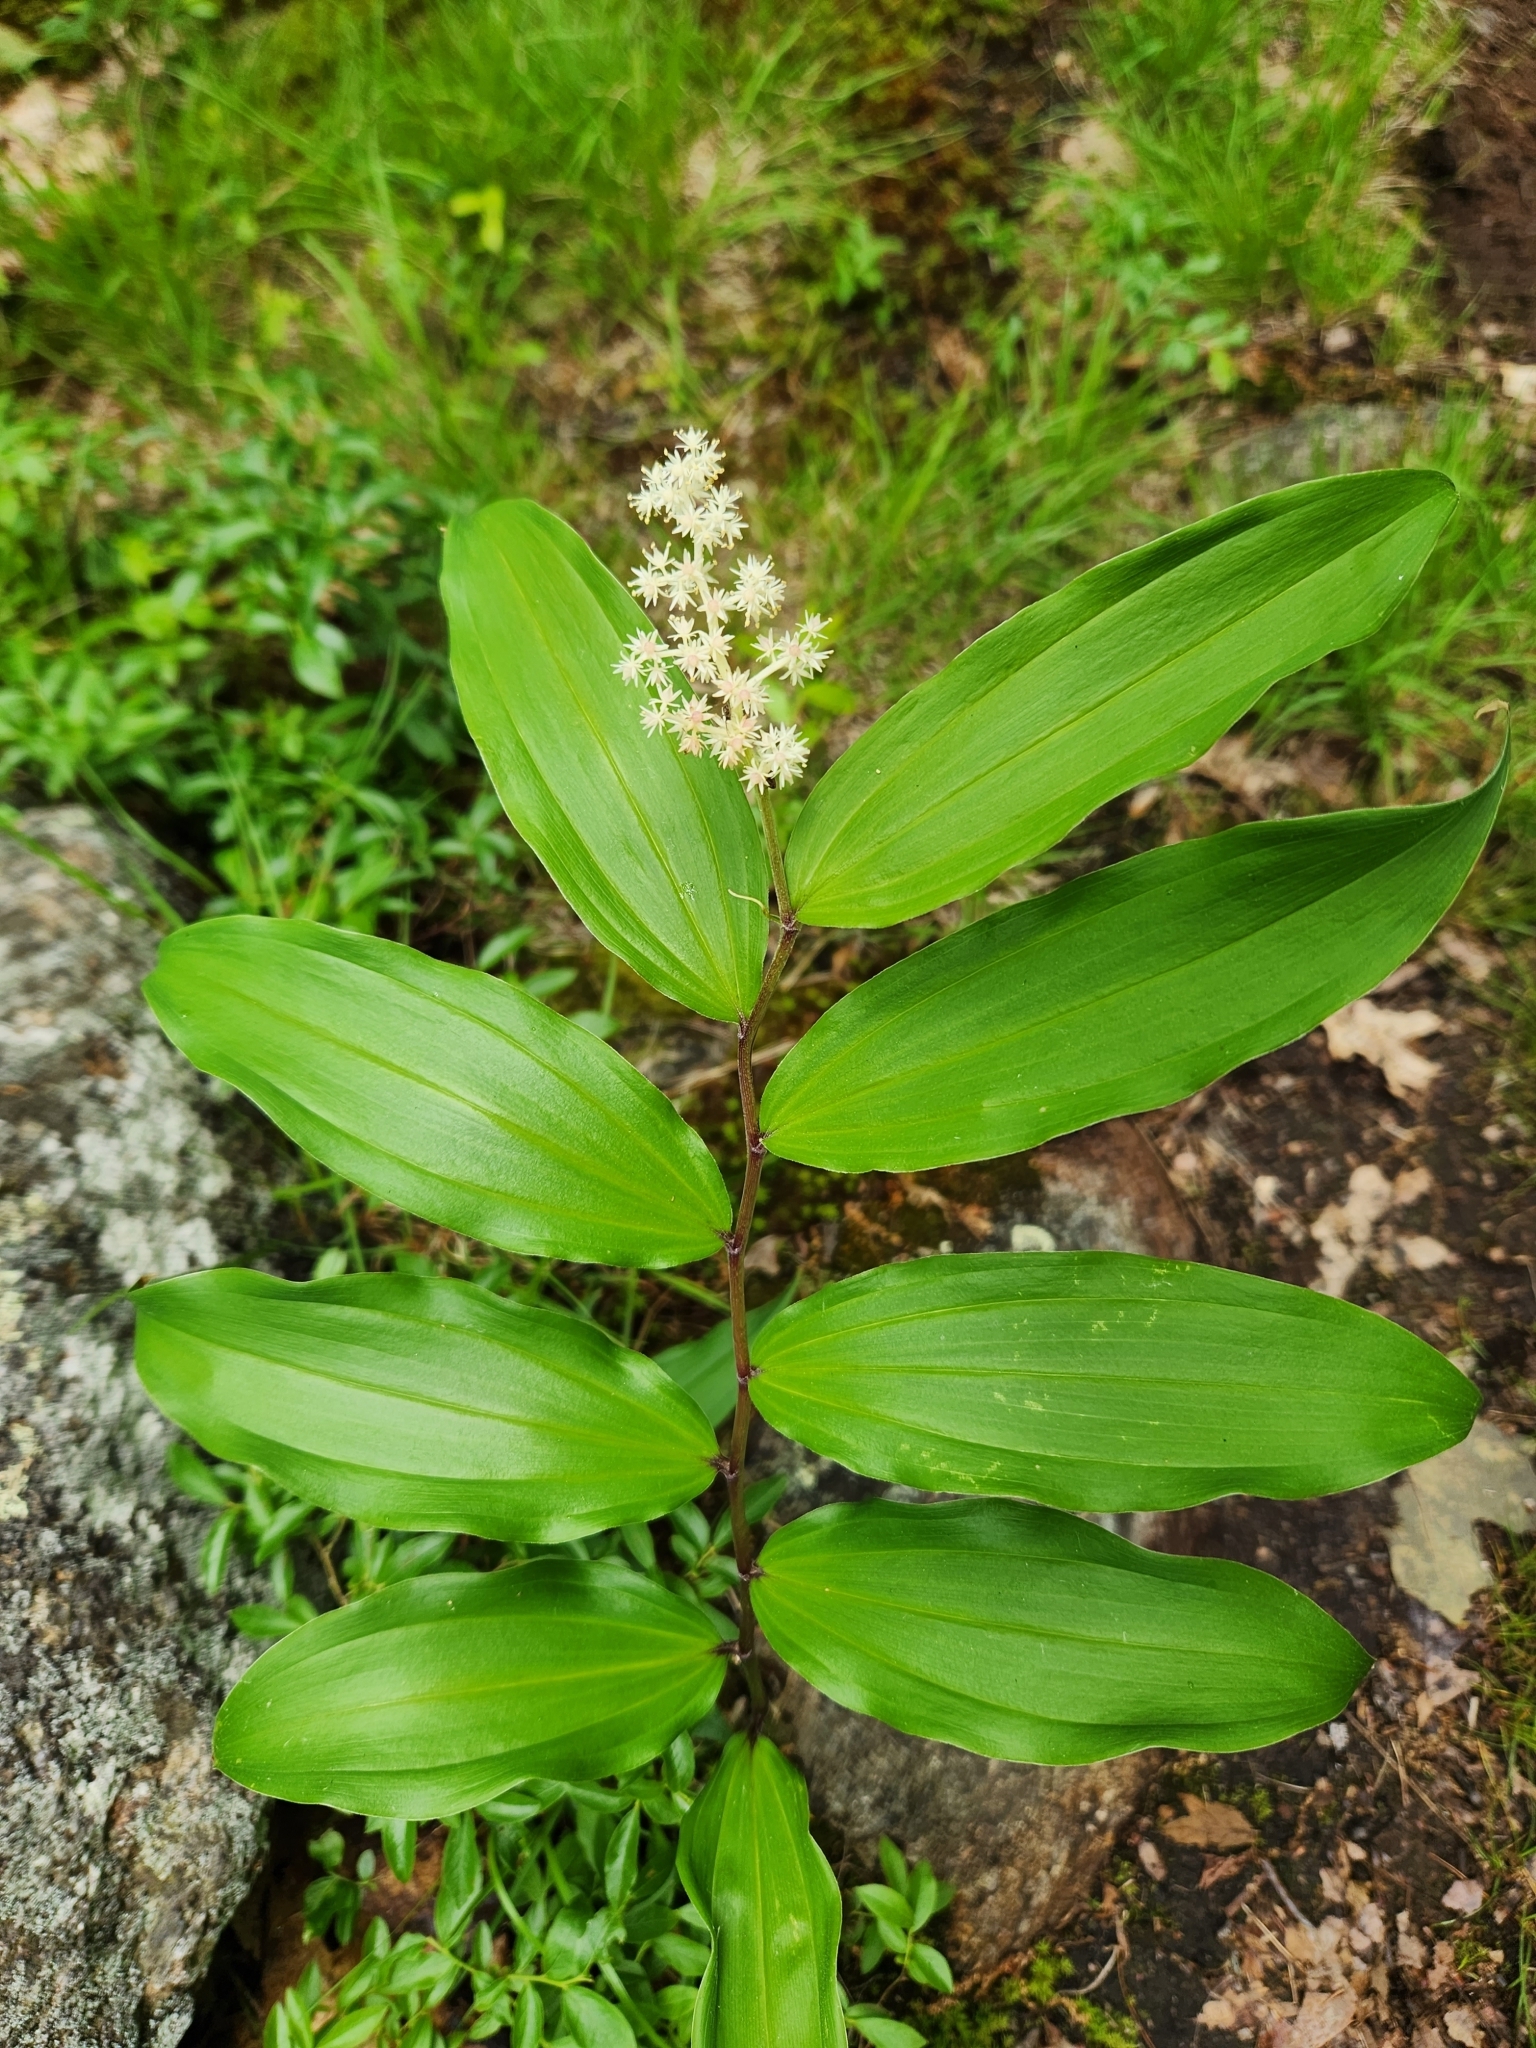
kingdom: Plantae
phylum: Tracheophyta
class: Liliopsida
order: Asparagales
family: Asparagaceae
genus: Maianthemum
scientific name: Maianthemum racemosum
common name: False spikenard
